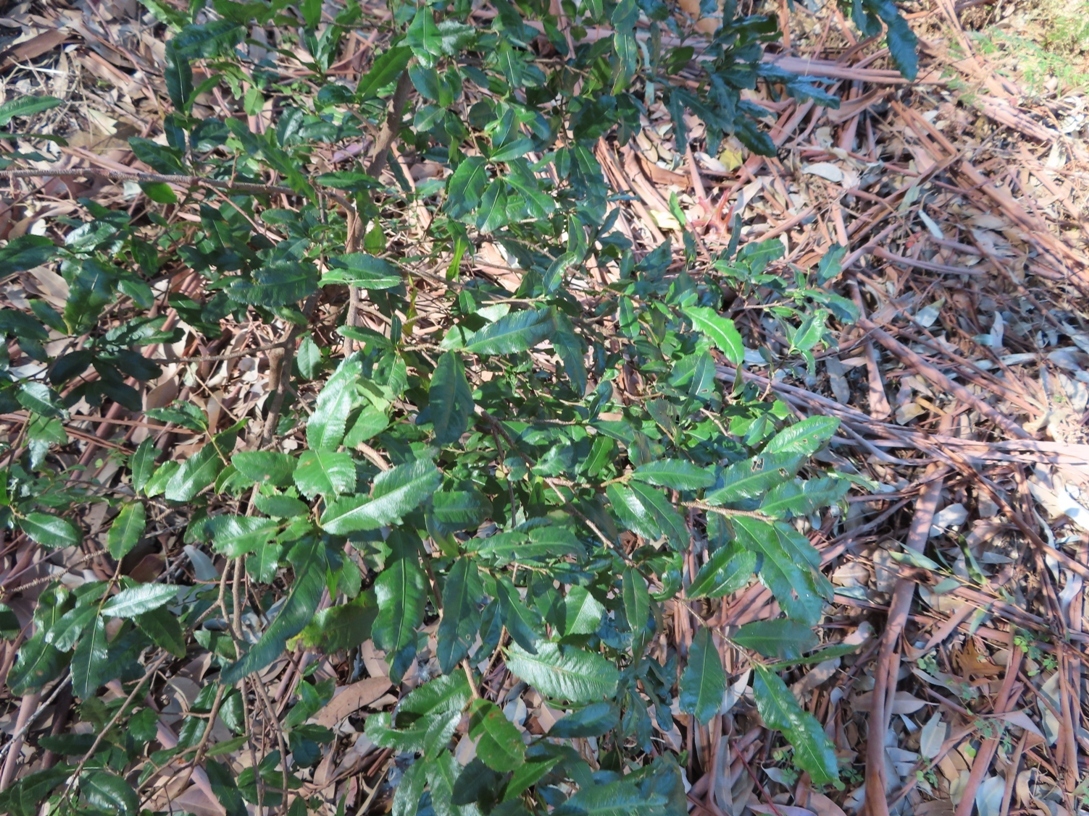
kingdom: Plantae
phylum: Tracheophyta
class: Magnoliopsida
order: Malpighiales
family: Ochnaceae
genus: Ochna
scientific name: Ochna serrulata
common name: Mickey mouse plant
